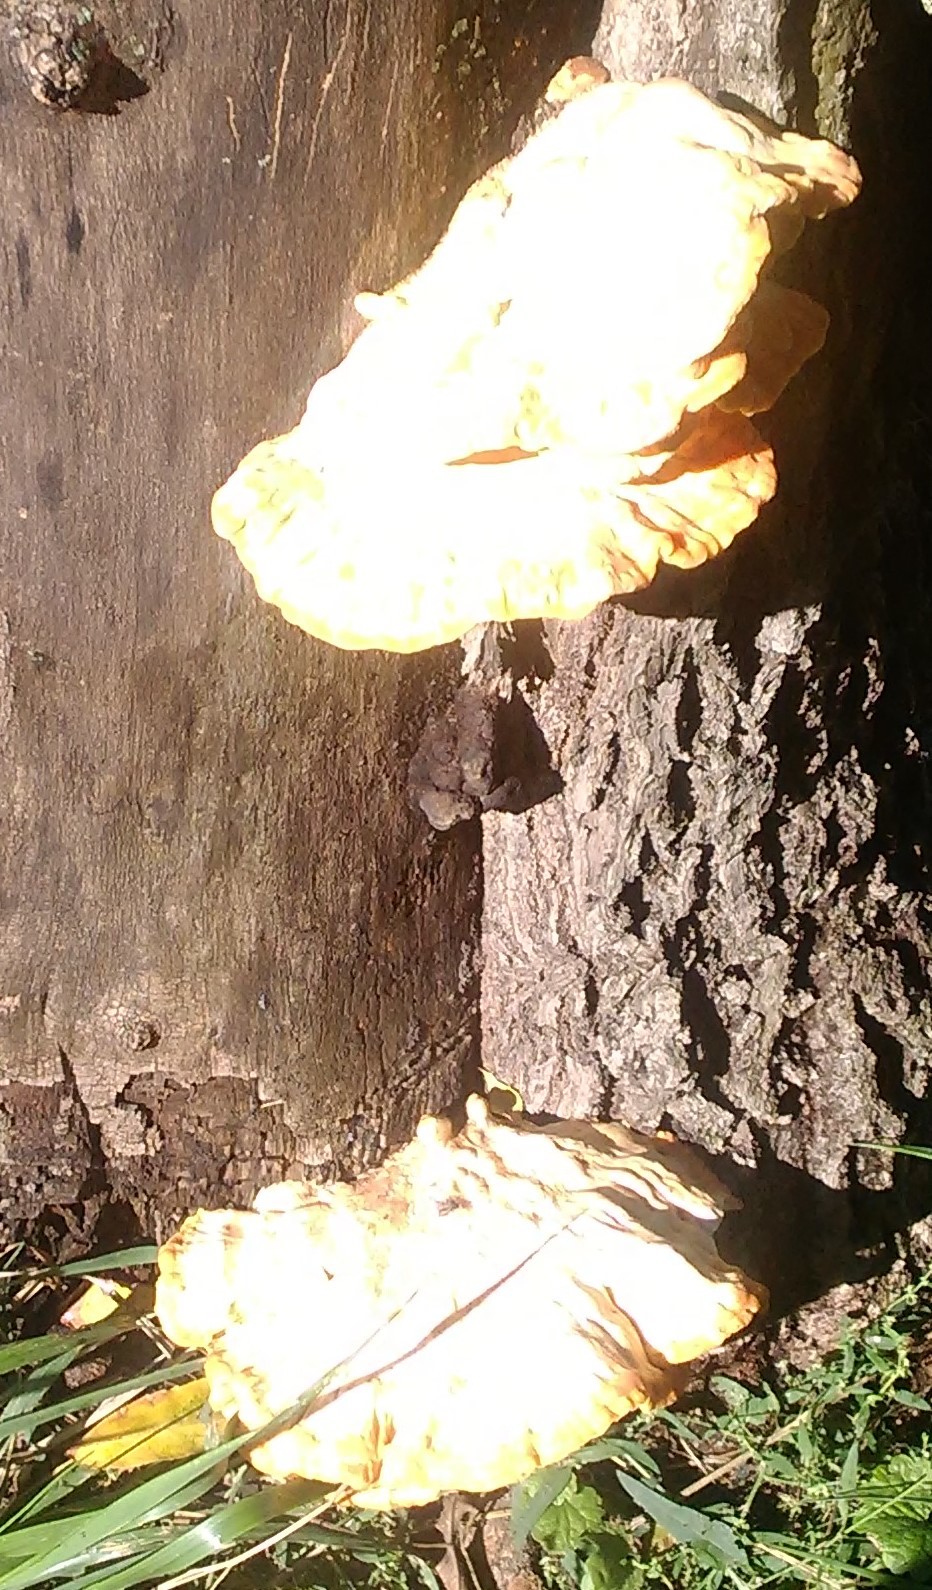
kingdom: Fungi
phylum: Basidiomycota
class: Agaricomycetes
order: Polyporales
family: Laetiporaceae
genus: Laetiporus
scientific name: Laetiporus sulphureus
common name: Chicken of the woods
